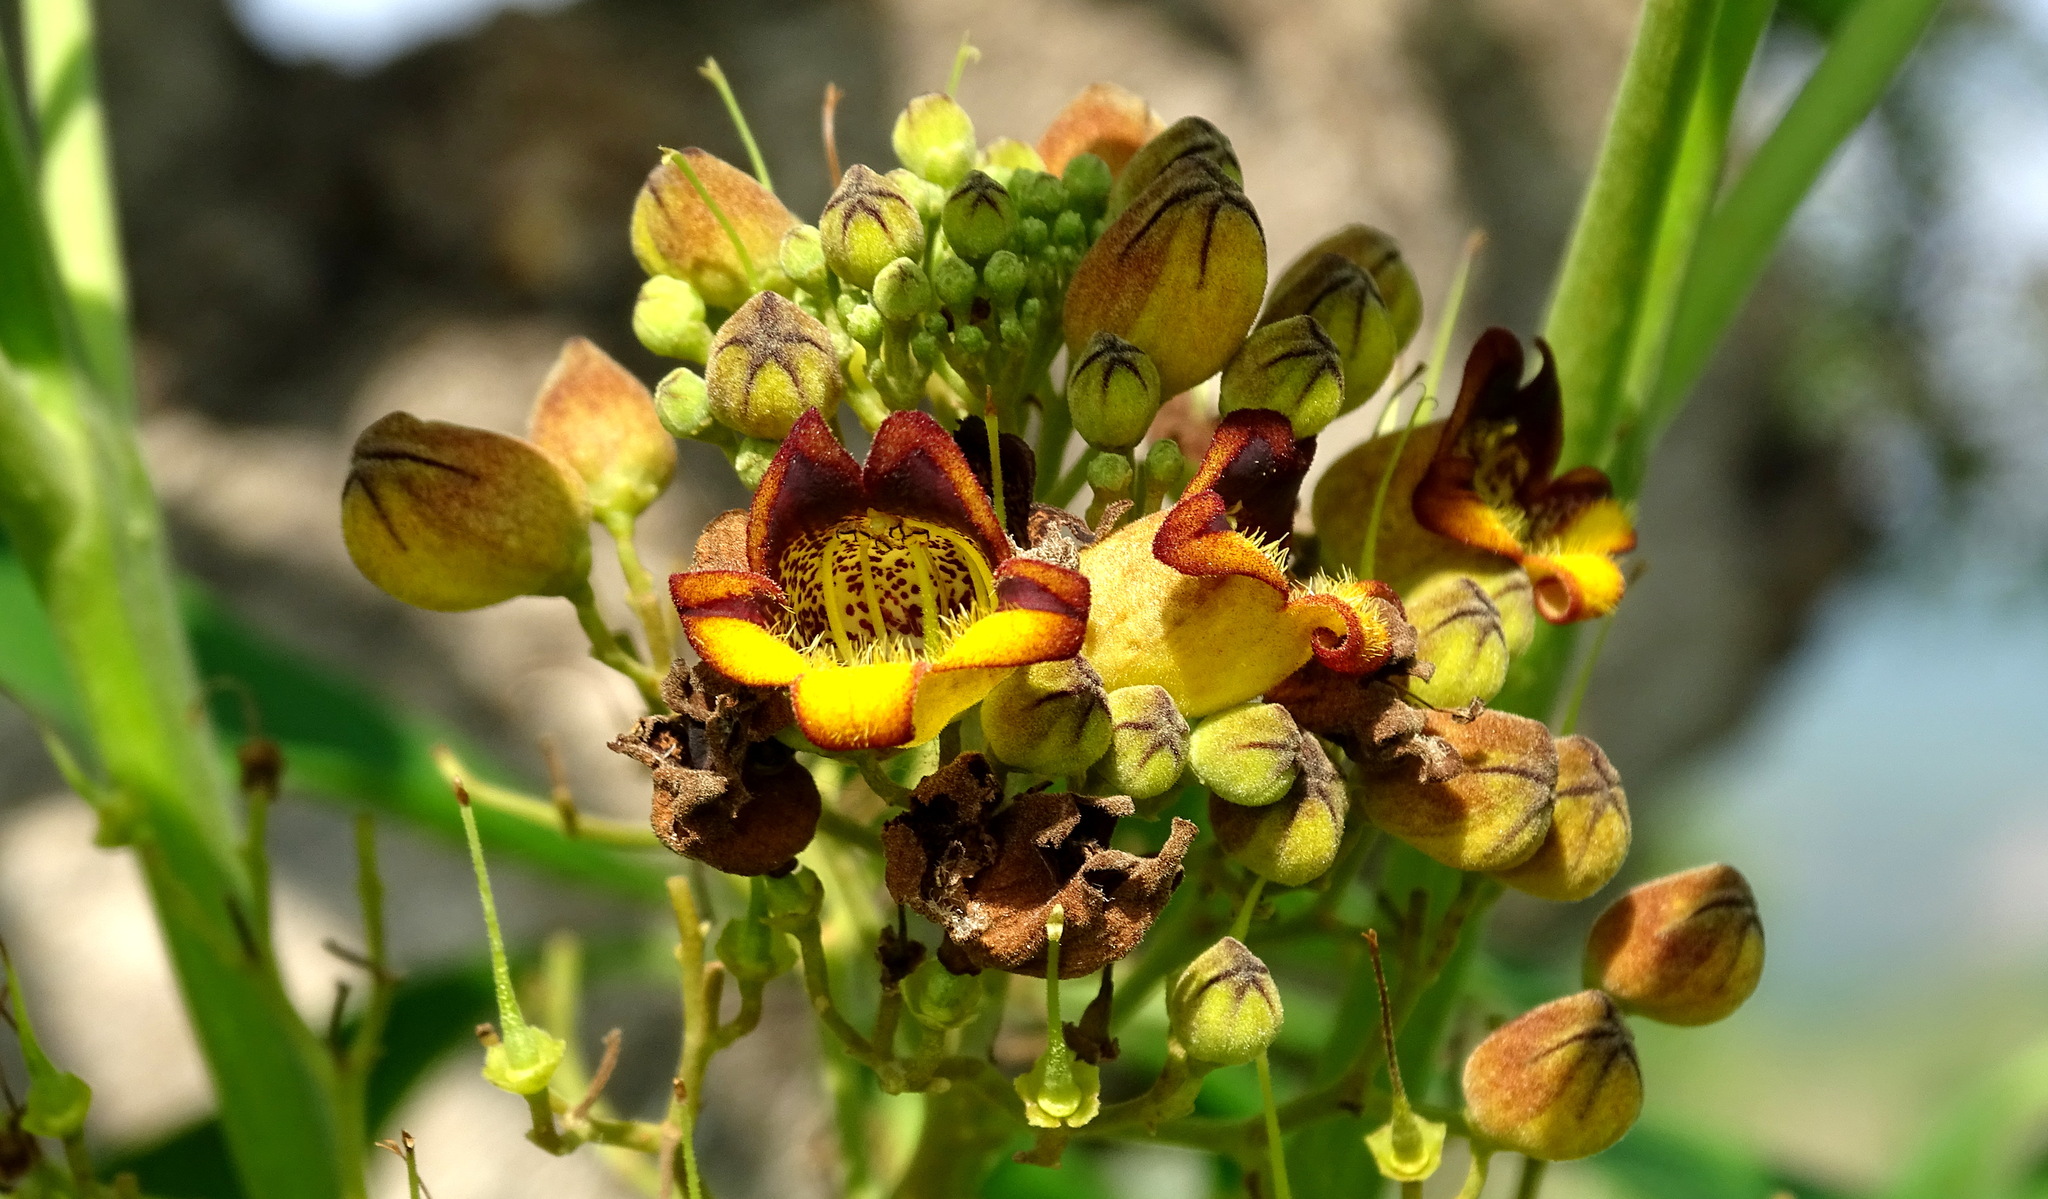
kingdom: Plantae
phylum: Tracheophyta
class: Magnoliopsida
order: Lamiales
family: Bignoniaceae
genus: Godmania
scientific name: Godmania aesculifolia
